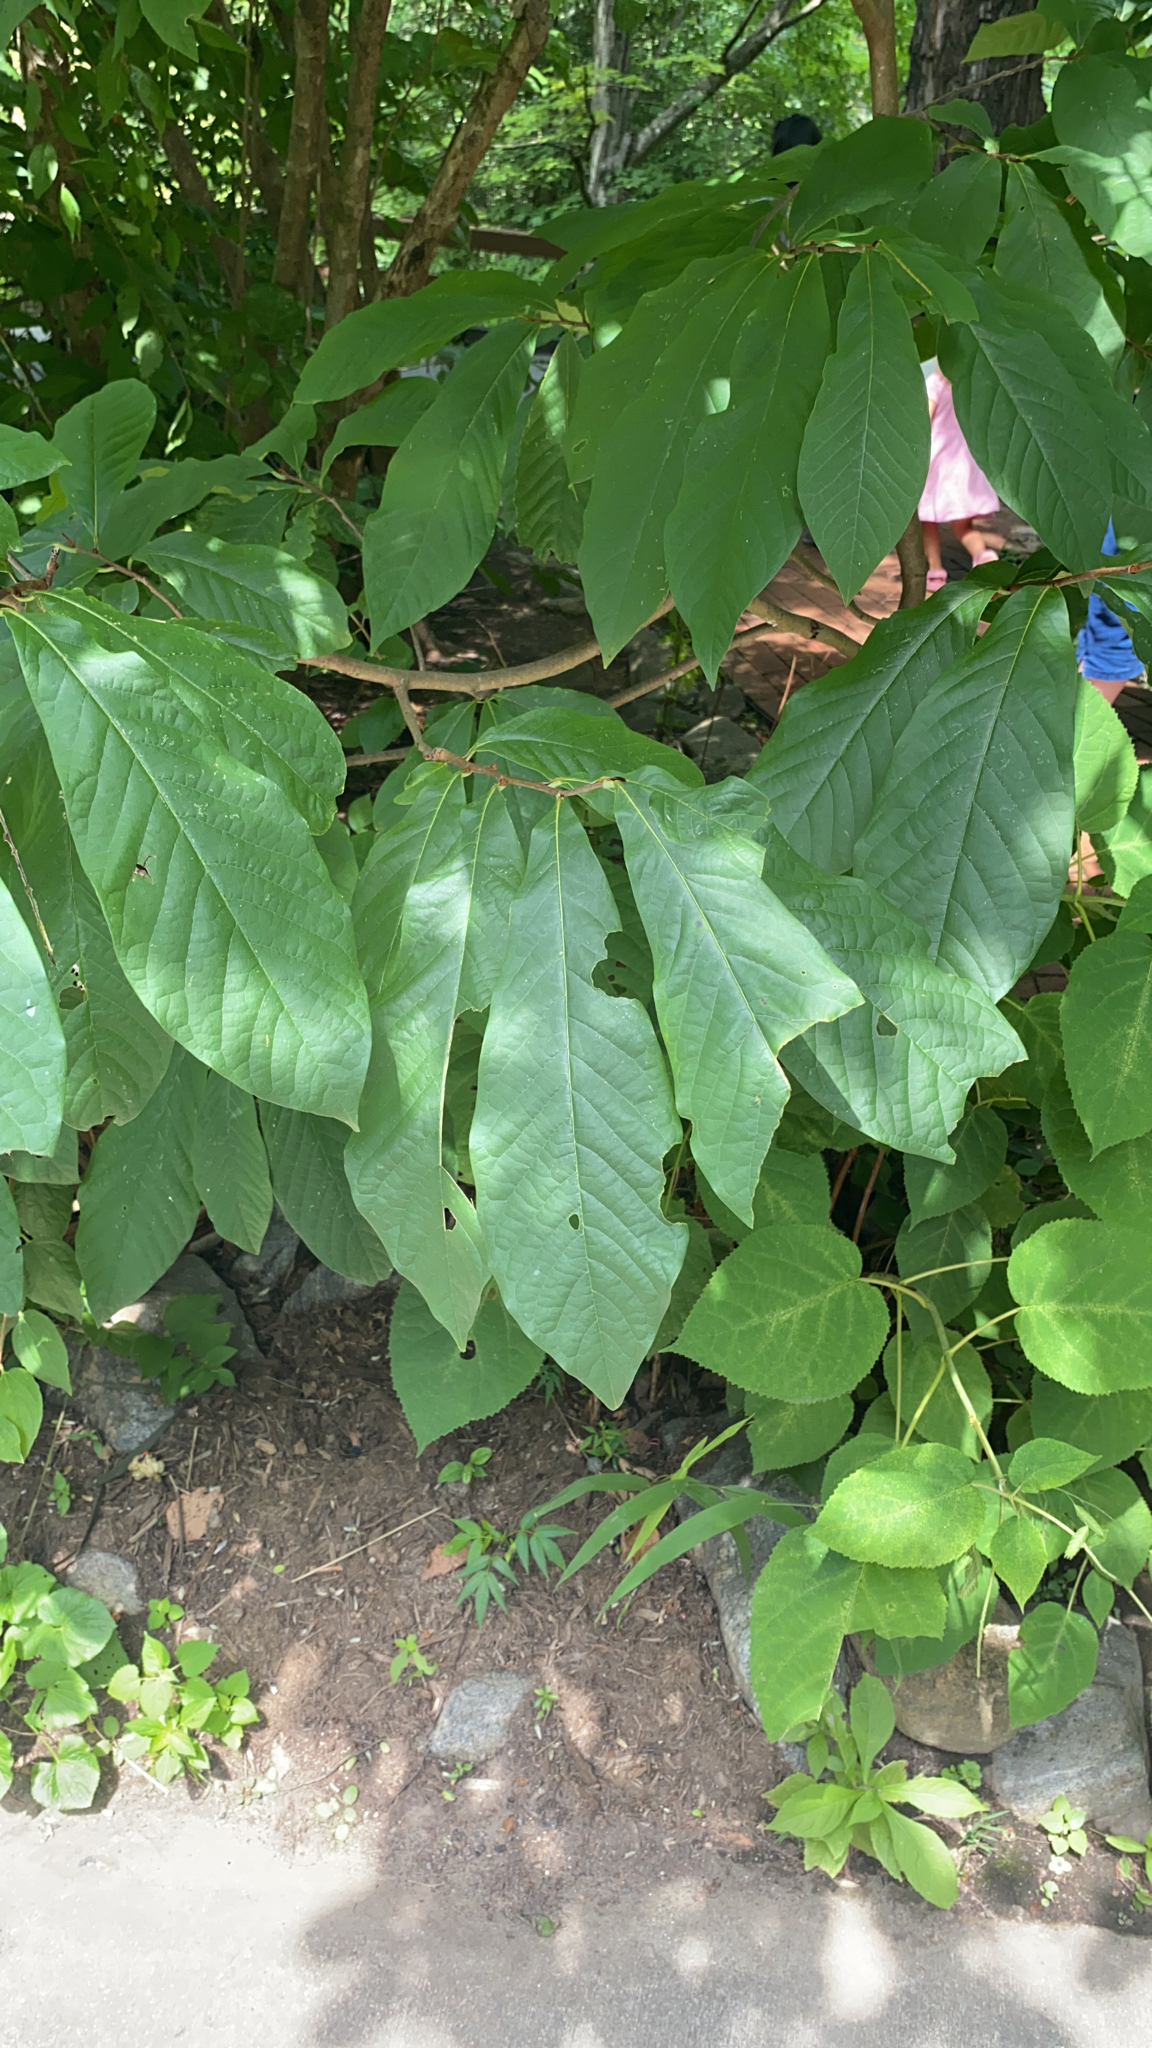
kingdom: Plantae
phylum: Tracheophyta
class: Magnoliopsida
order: Magnoliales
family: Annonaceae
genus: Asimina
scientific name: Asimina triloba
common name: Dog-banana
